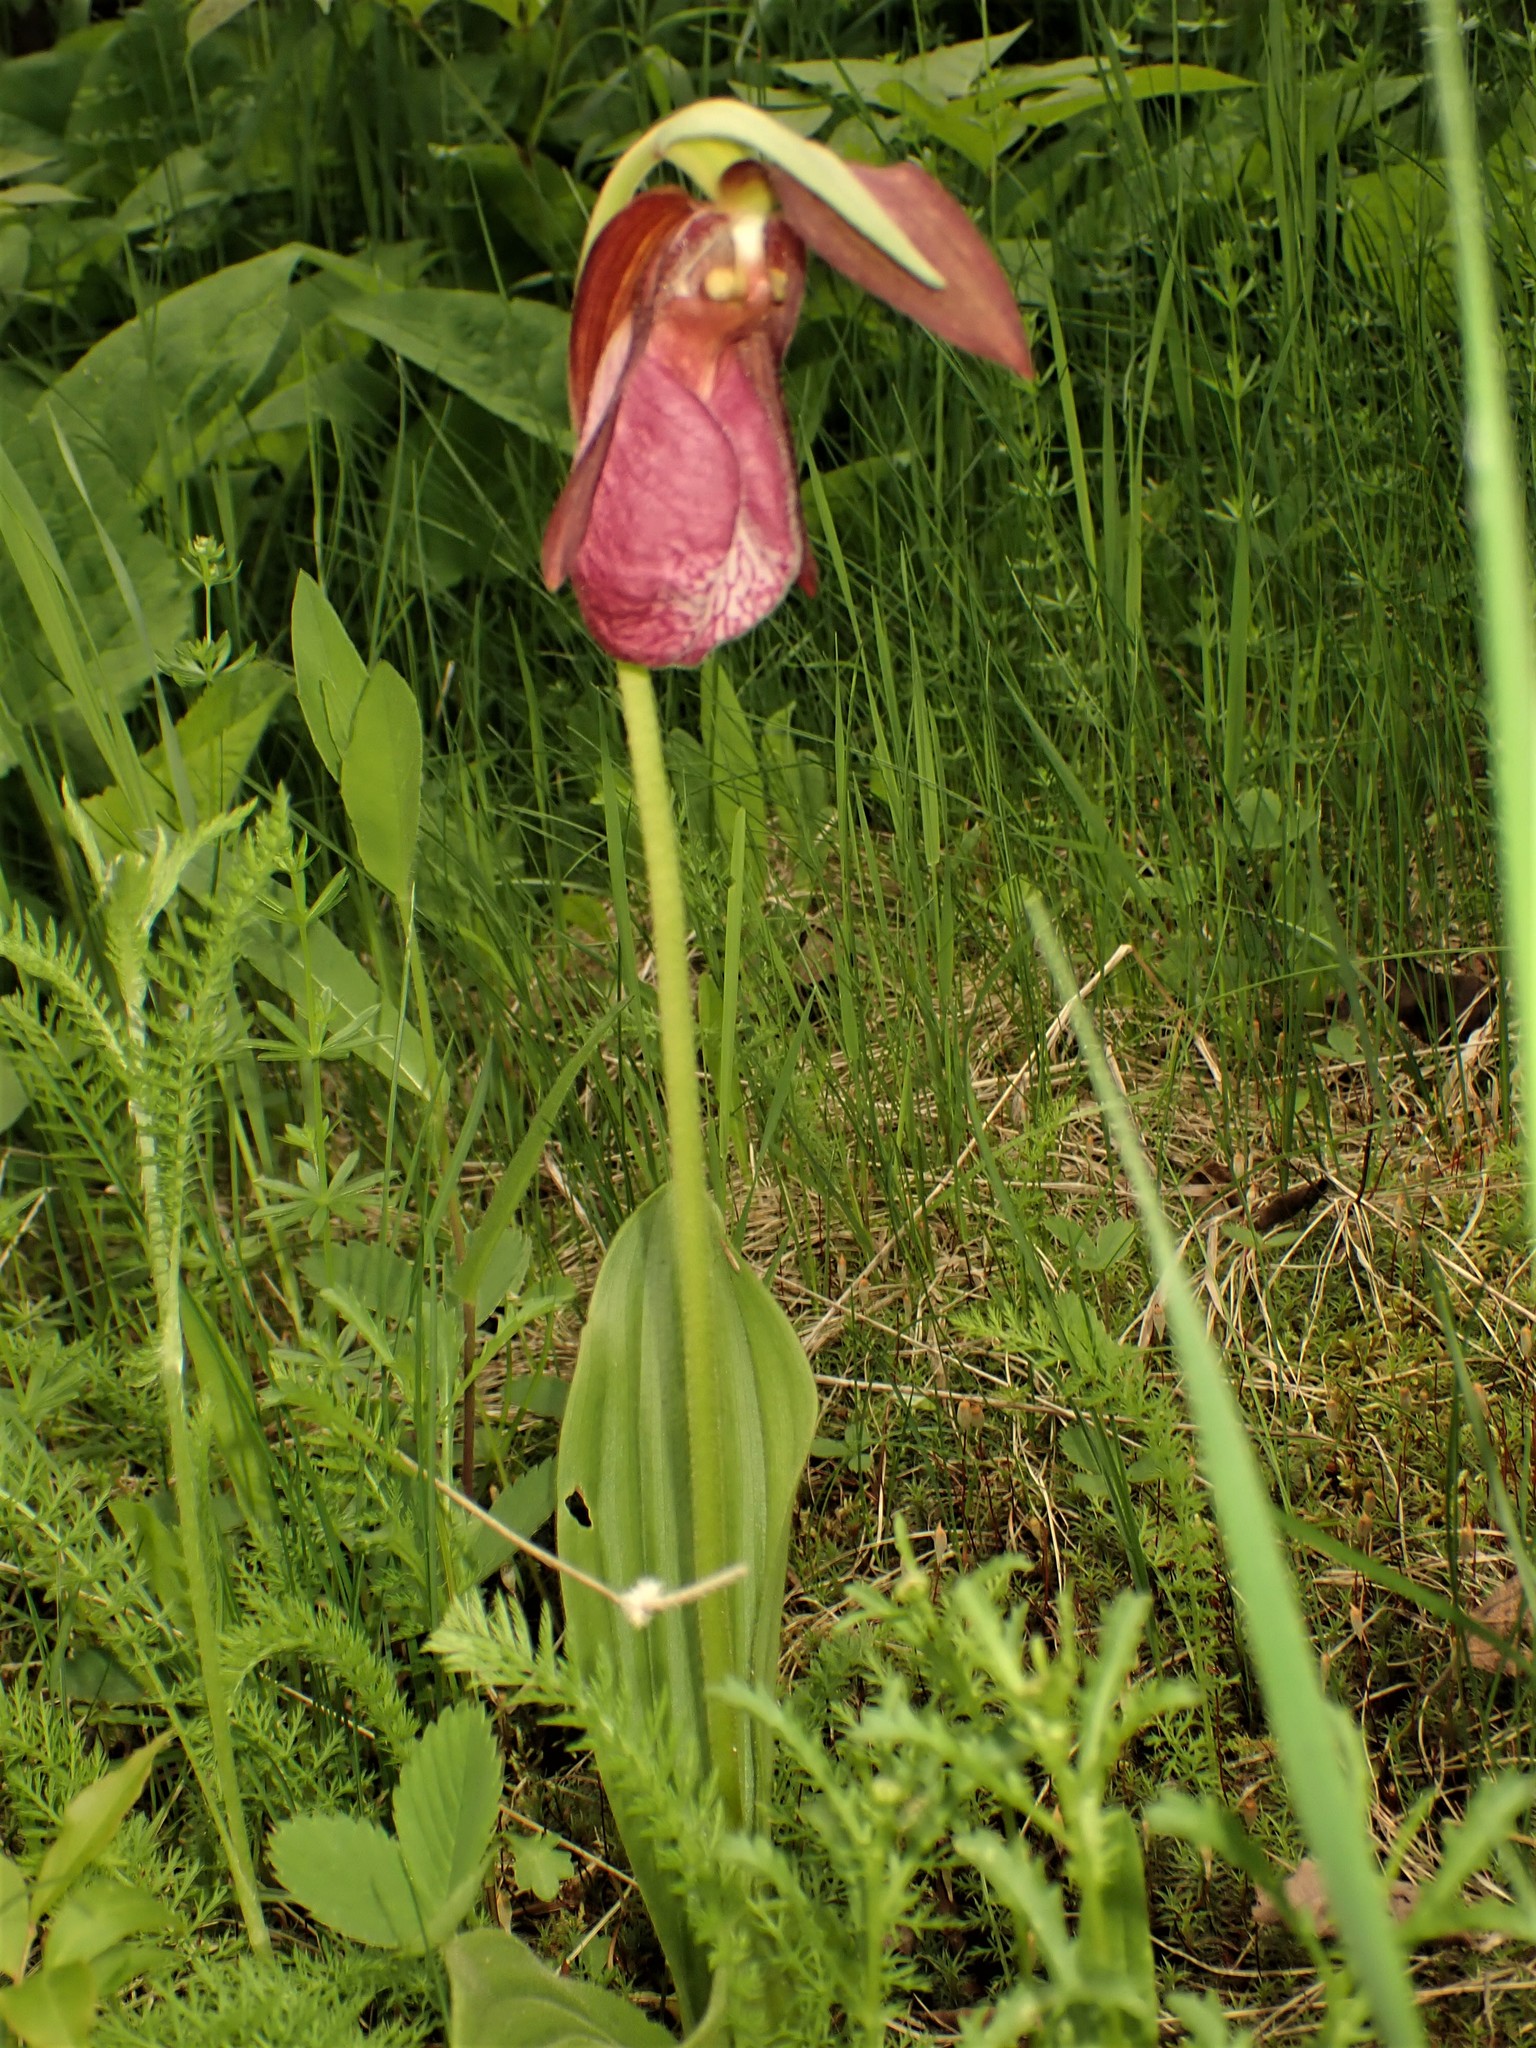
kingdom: Plantae
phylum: Tracheophyta
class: Liliopsida
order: Asparagales
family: Orchidaceae
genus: Cypripedium
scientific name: Cypripedium acaule
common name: Pink lady's-slipper
